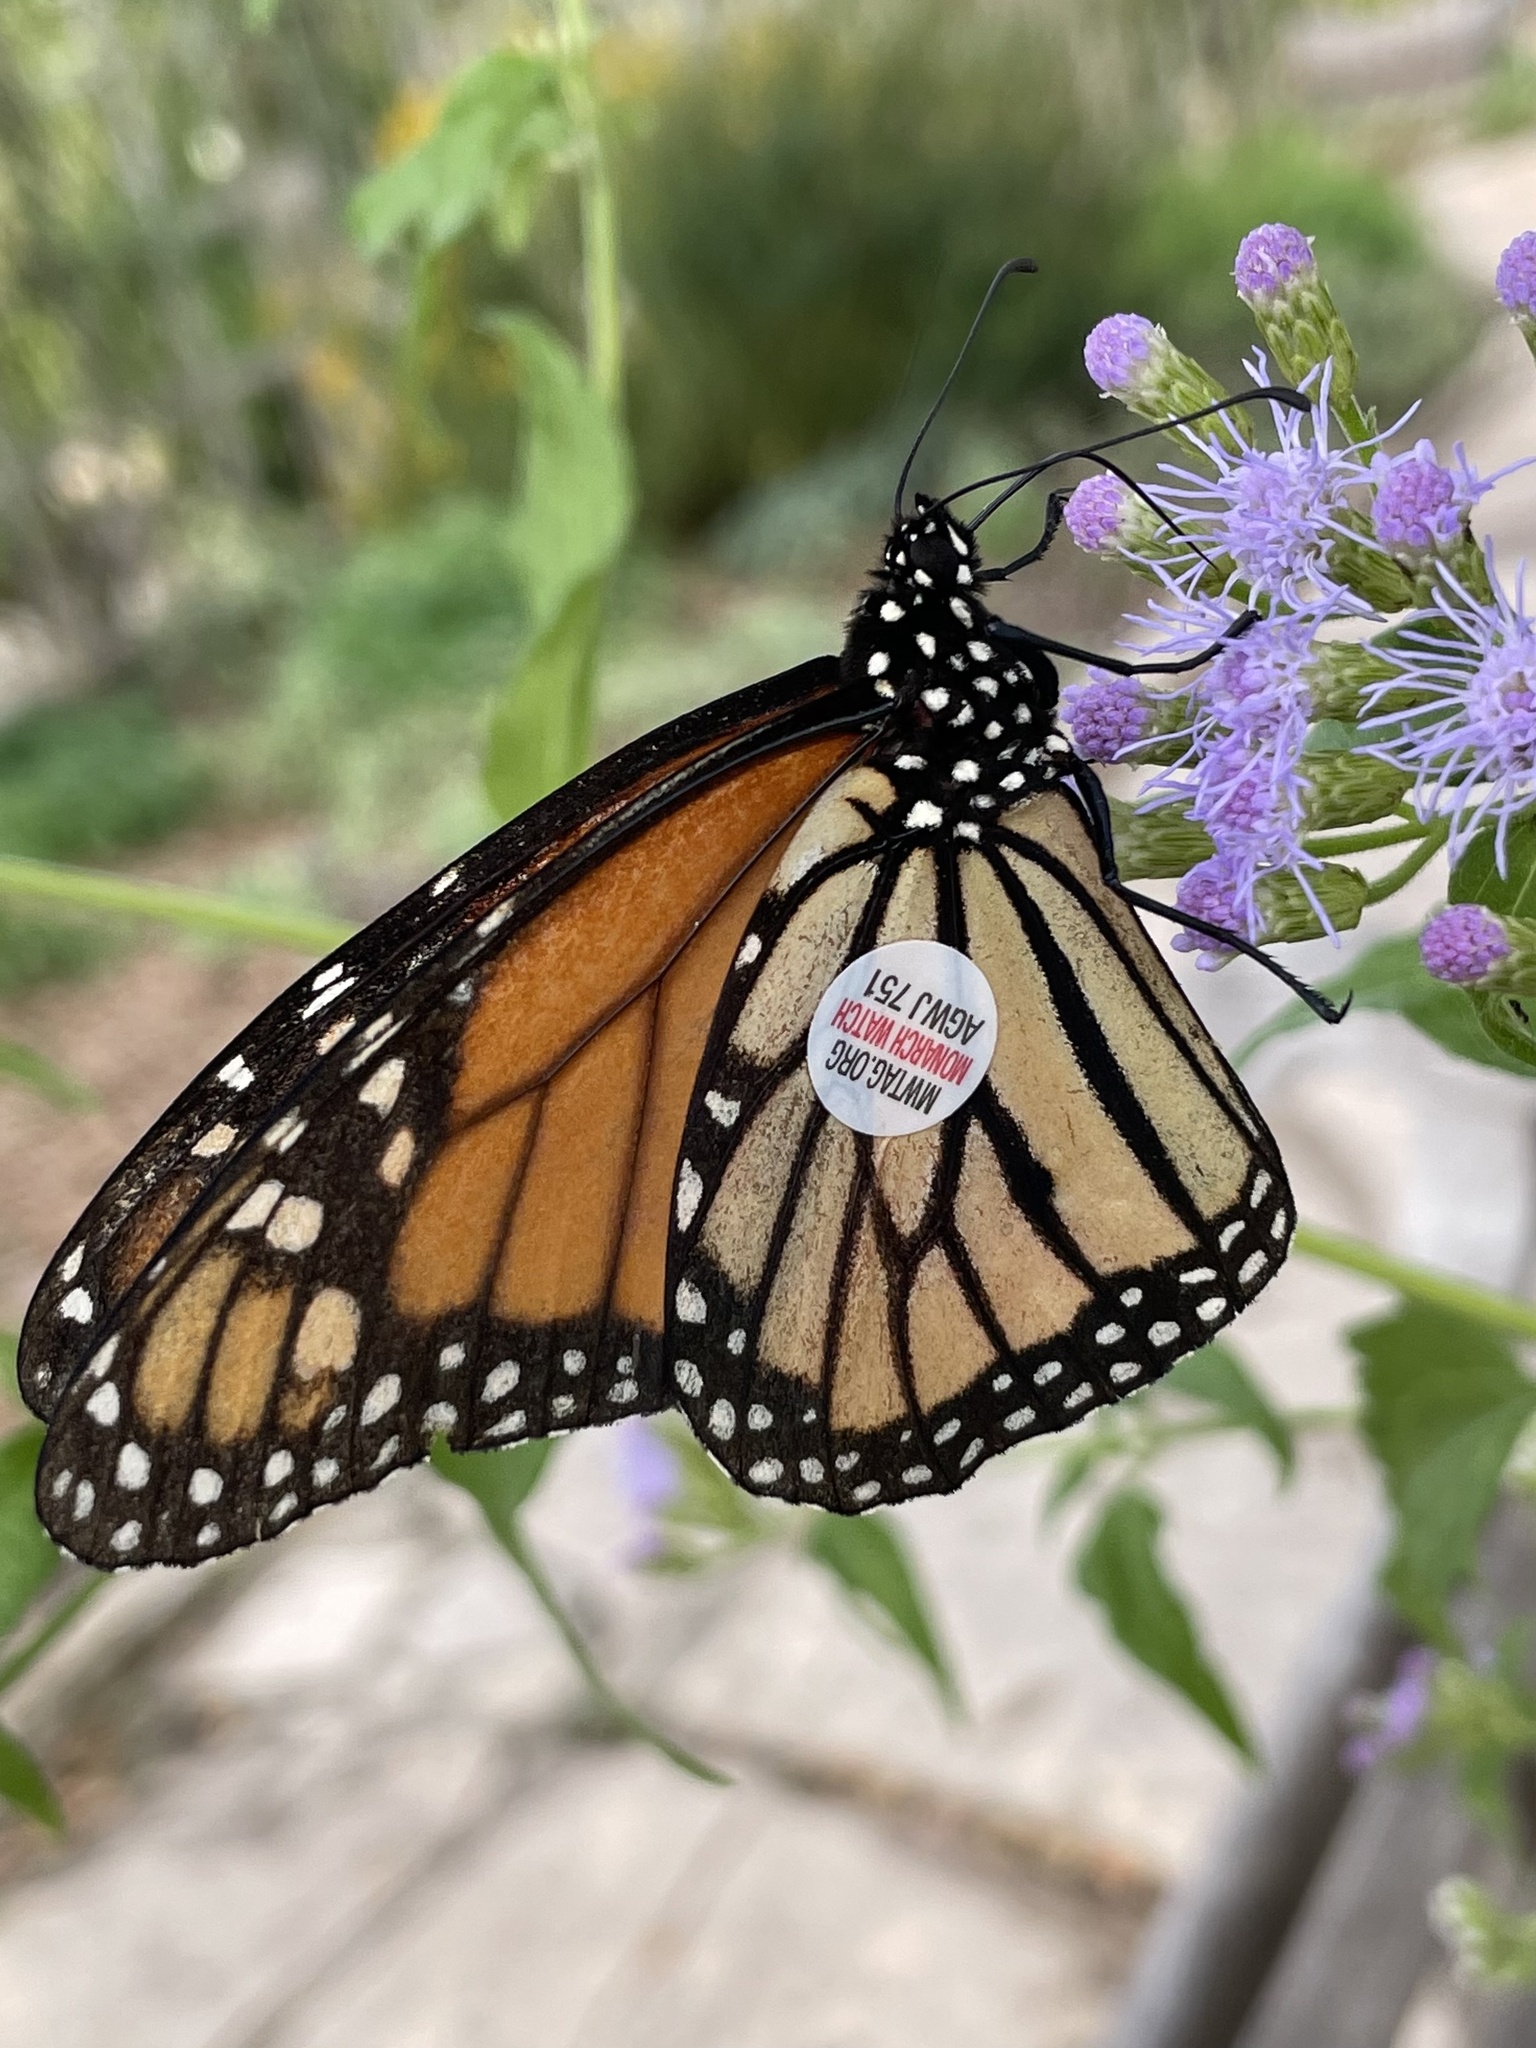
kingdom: Animalia
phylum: Arthropoda
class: Insecta
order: Lepidoptera
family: Nymphalidae
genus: Danaus
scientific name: Danaus plexippus
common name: Monarch
